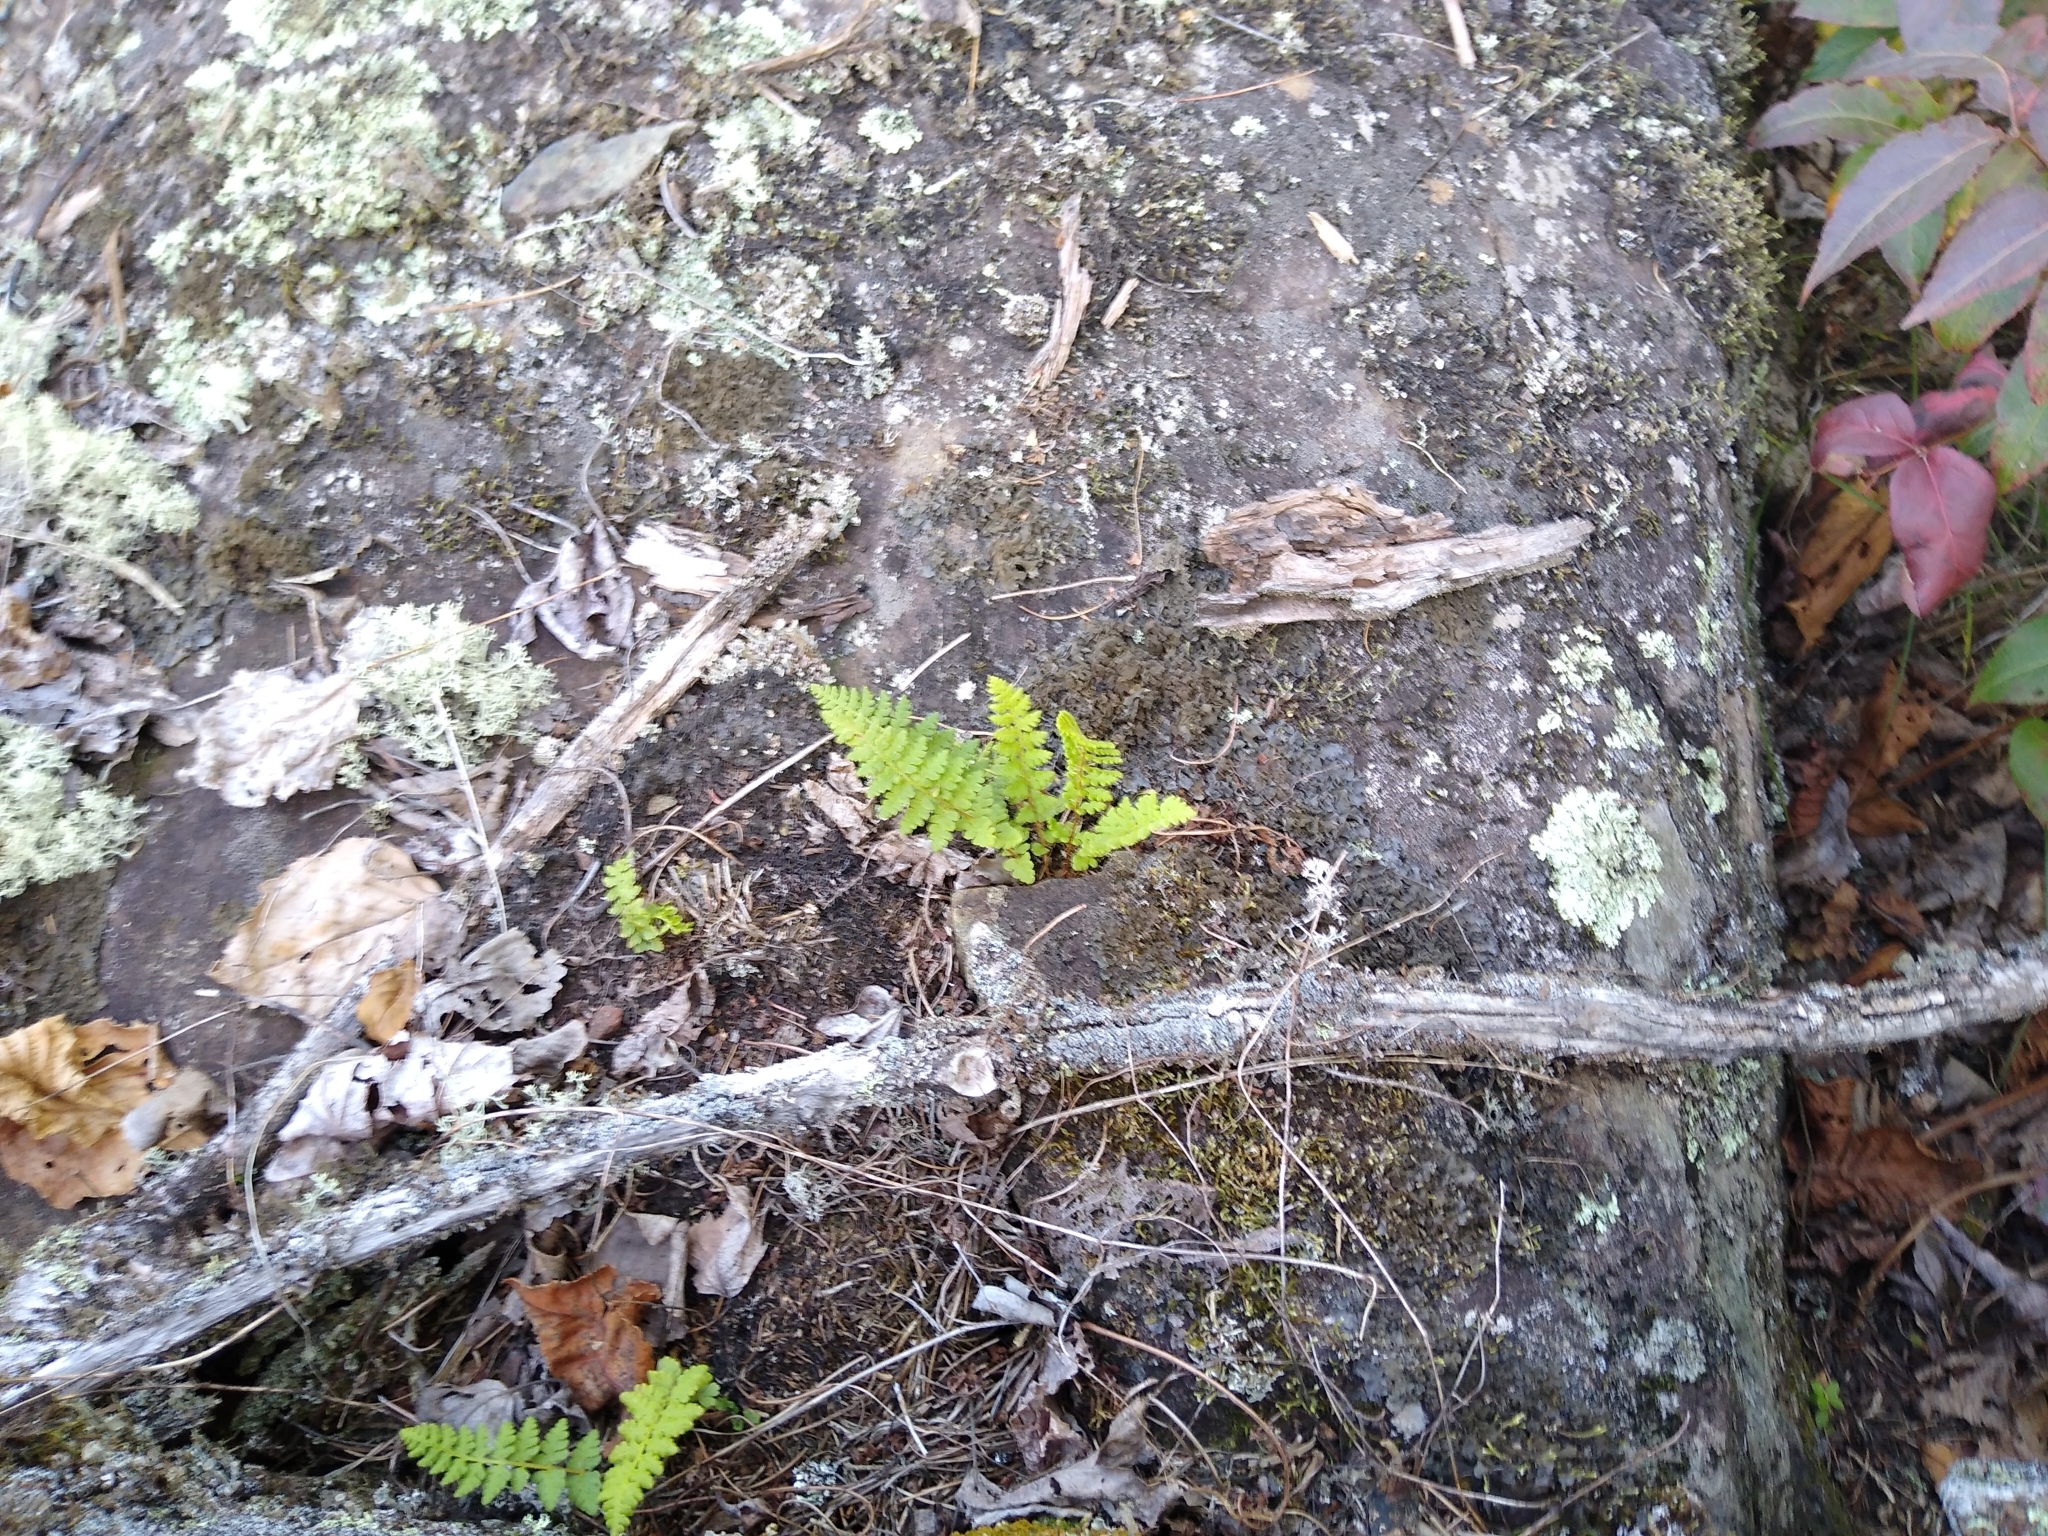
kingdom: Plantae
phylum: Tracheophyta
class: Polypodiopsida
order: Polypodiales
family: Woodsiaceae
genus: Woodsia
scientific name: Woodsia ilvensis
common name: Fragrant woodsia
